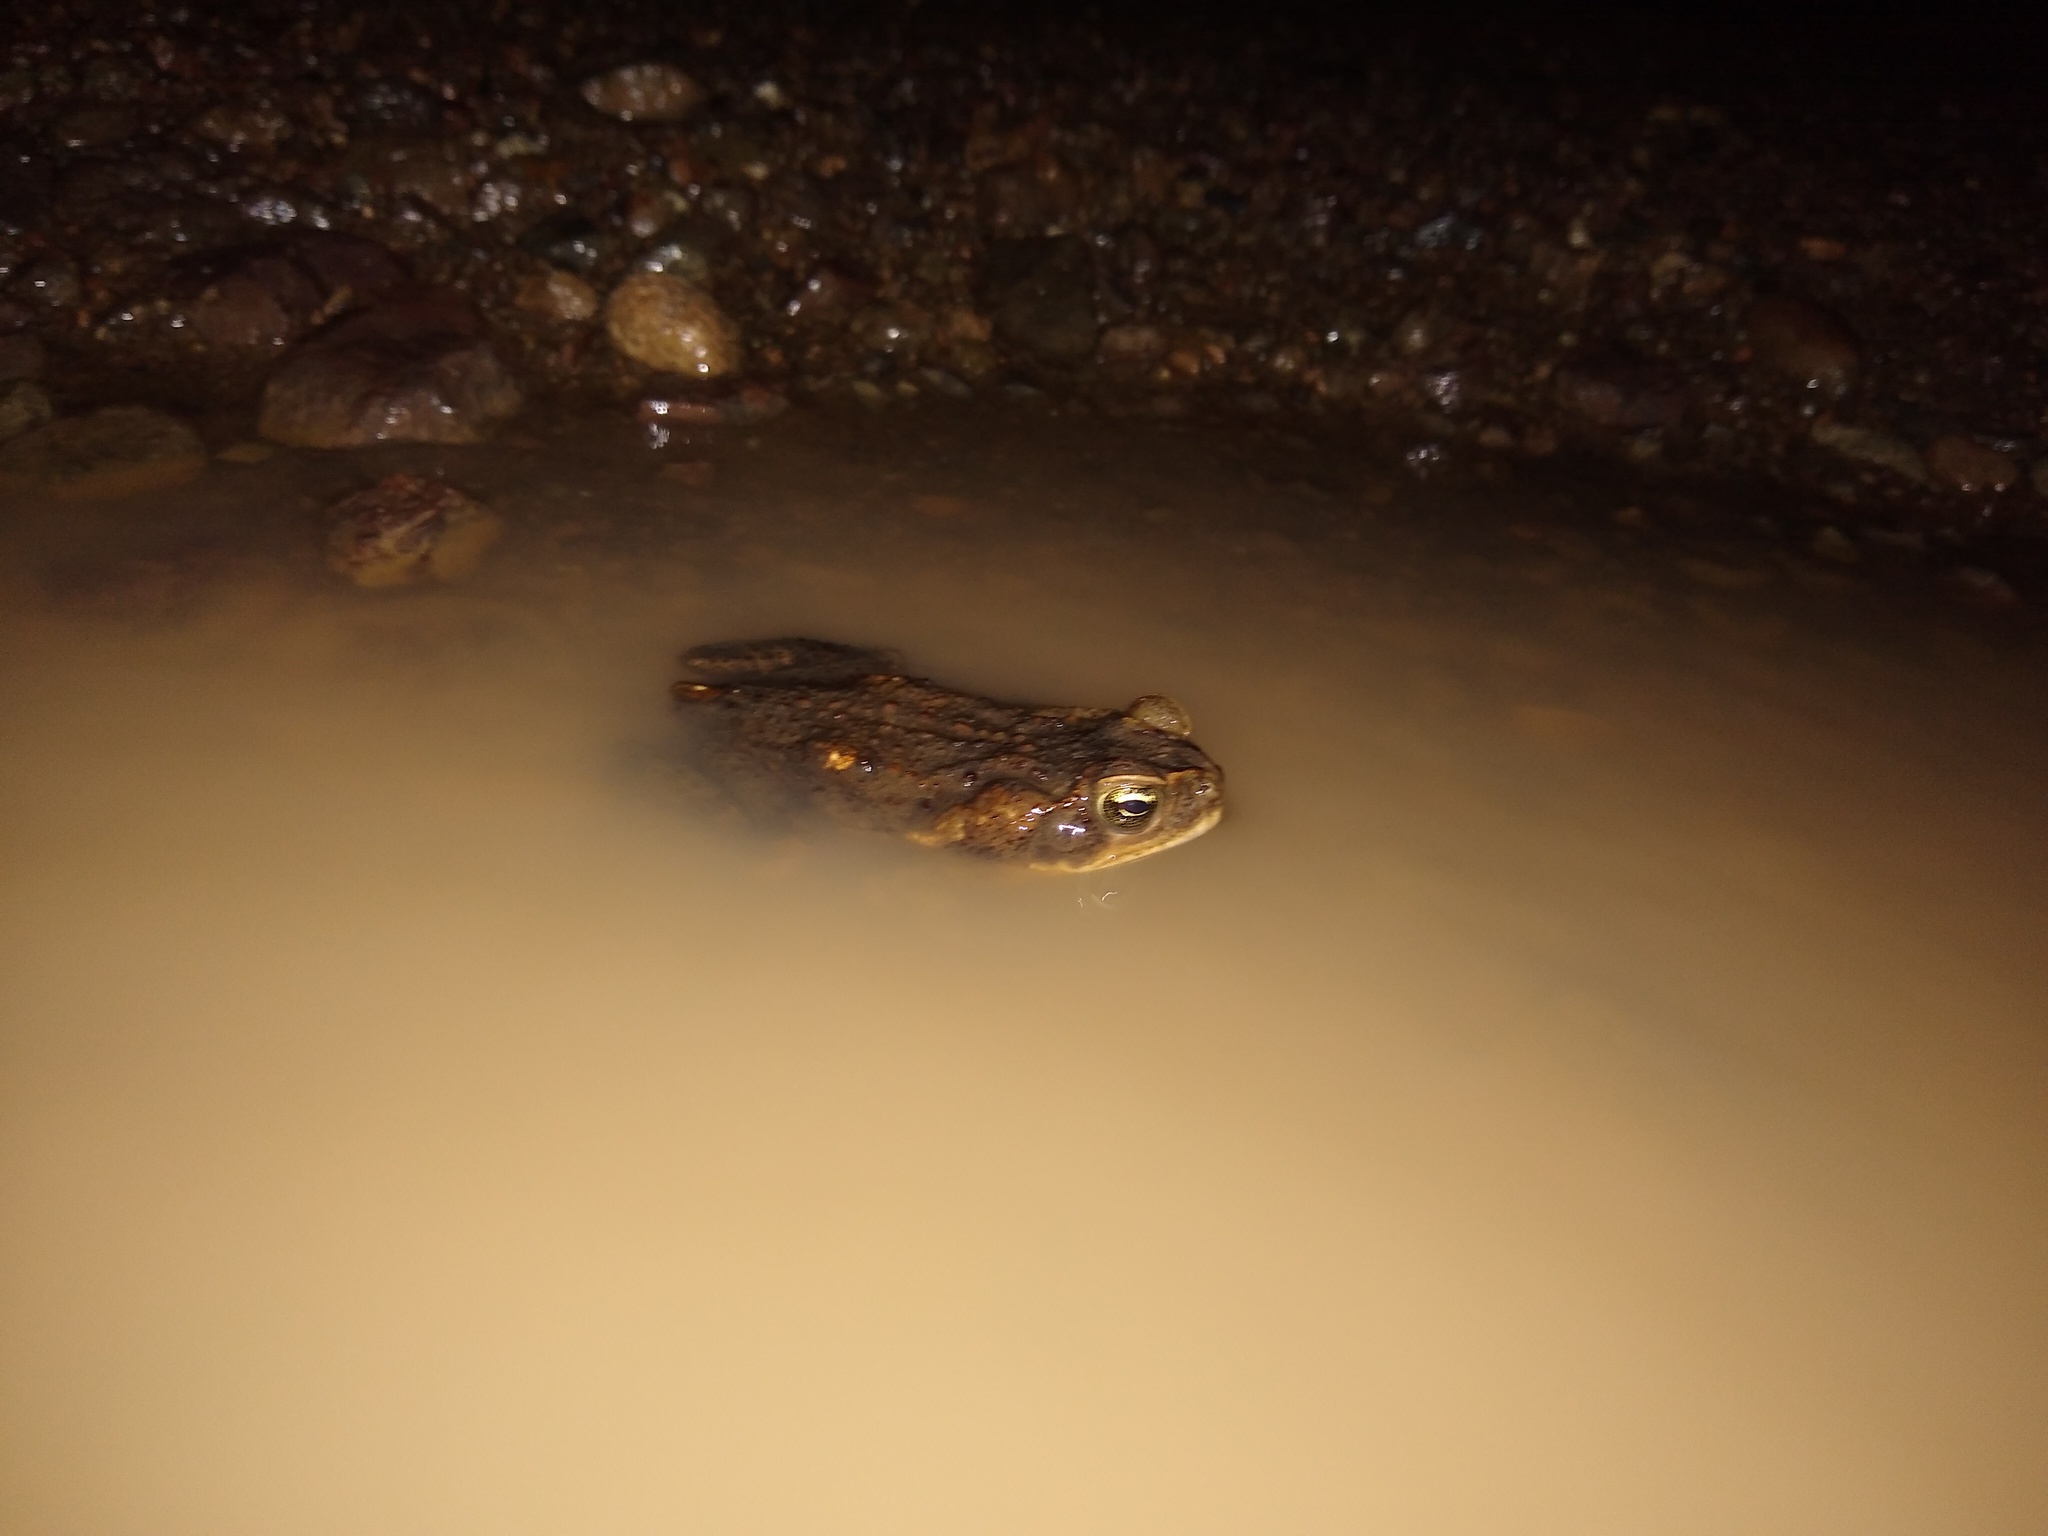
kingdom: Animalia
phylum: Chordata
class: Amphibia
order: Anura
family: Bufonidae
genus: Rhinella
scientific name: Rhinella horribilis
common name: Mesoamerican cane toad
